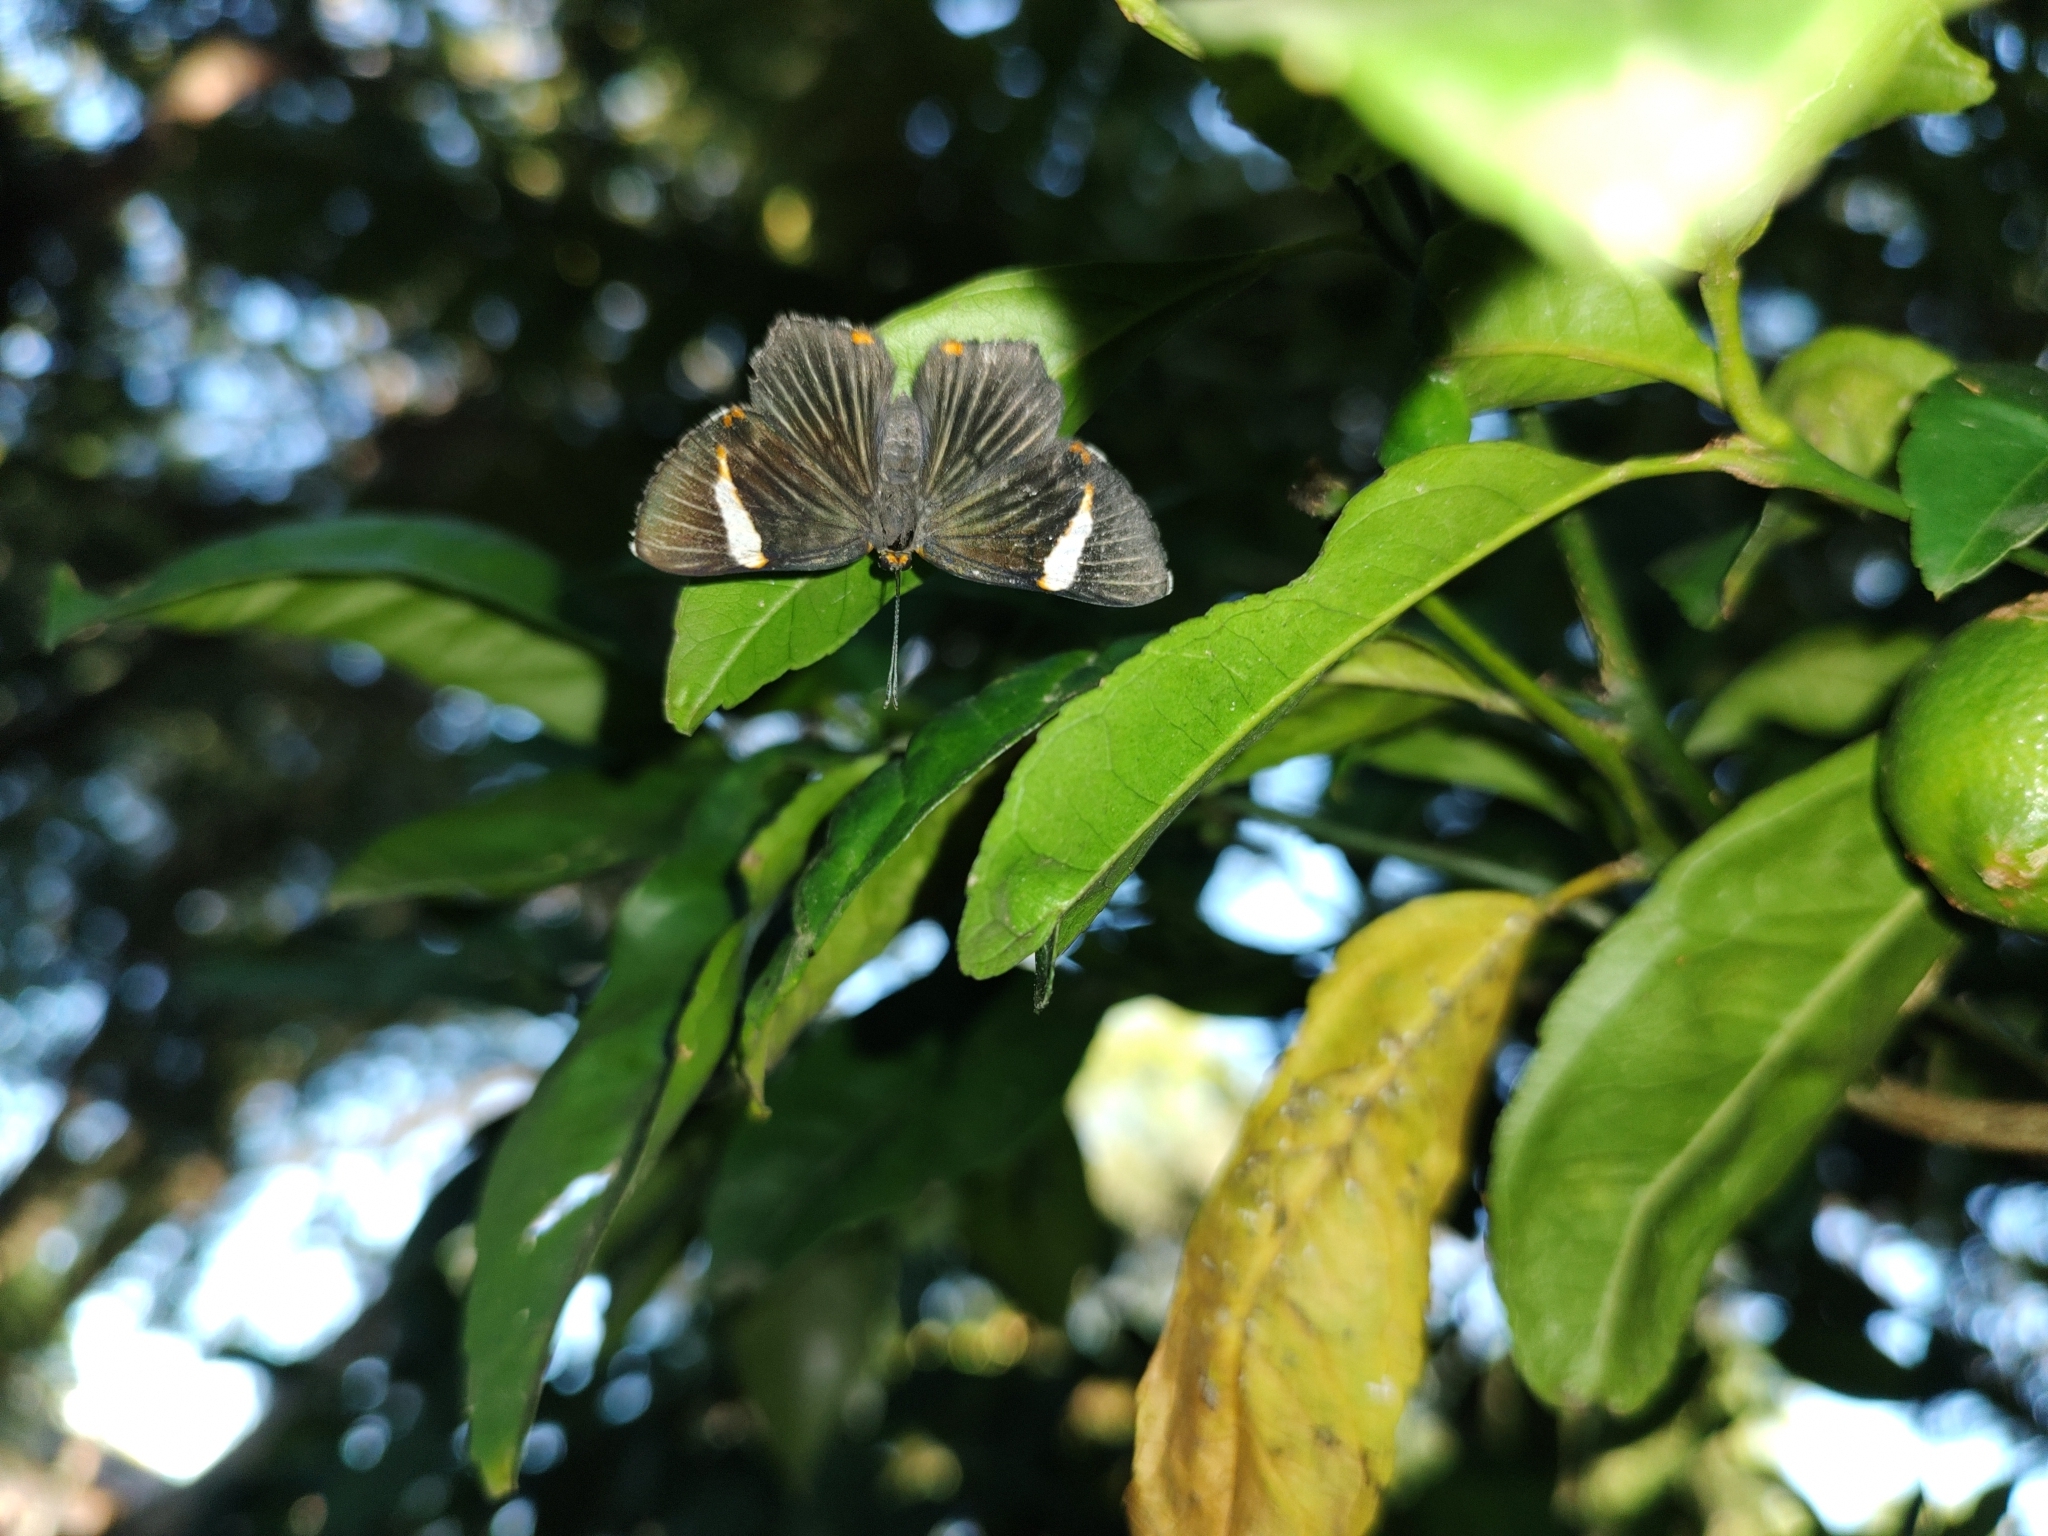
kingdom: Animalia
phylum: Arthropoda
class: Insecta
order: Lepidoptera
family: Riodinidae
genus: Riodina
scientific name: Riodina lycisca
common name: Lycisca metalmark
